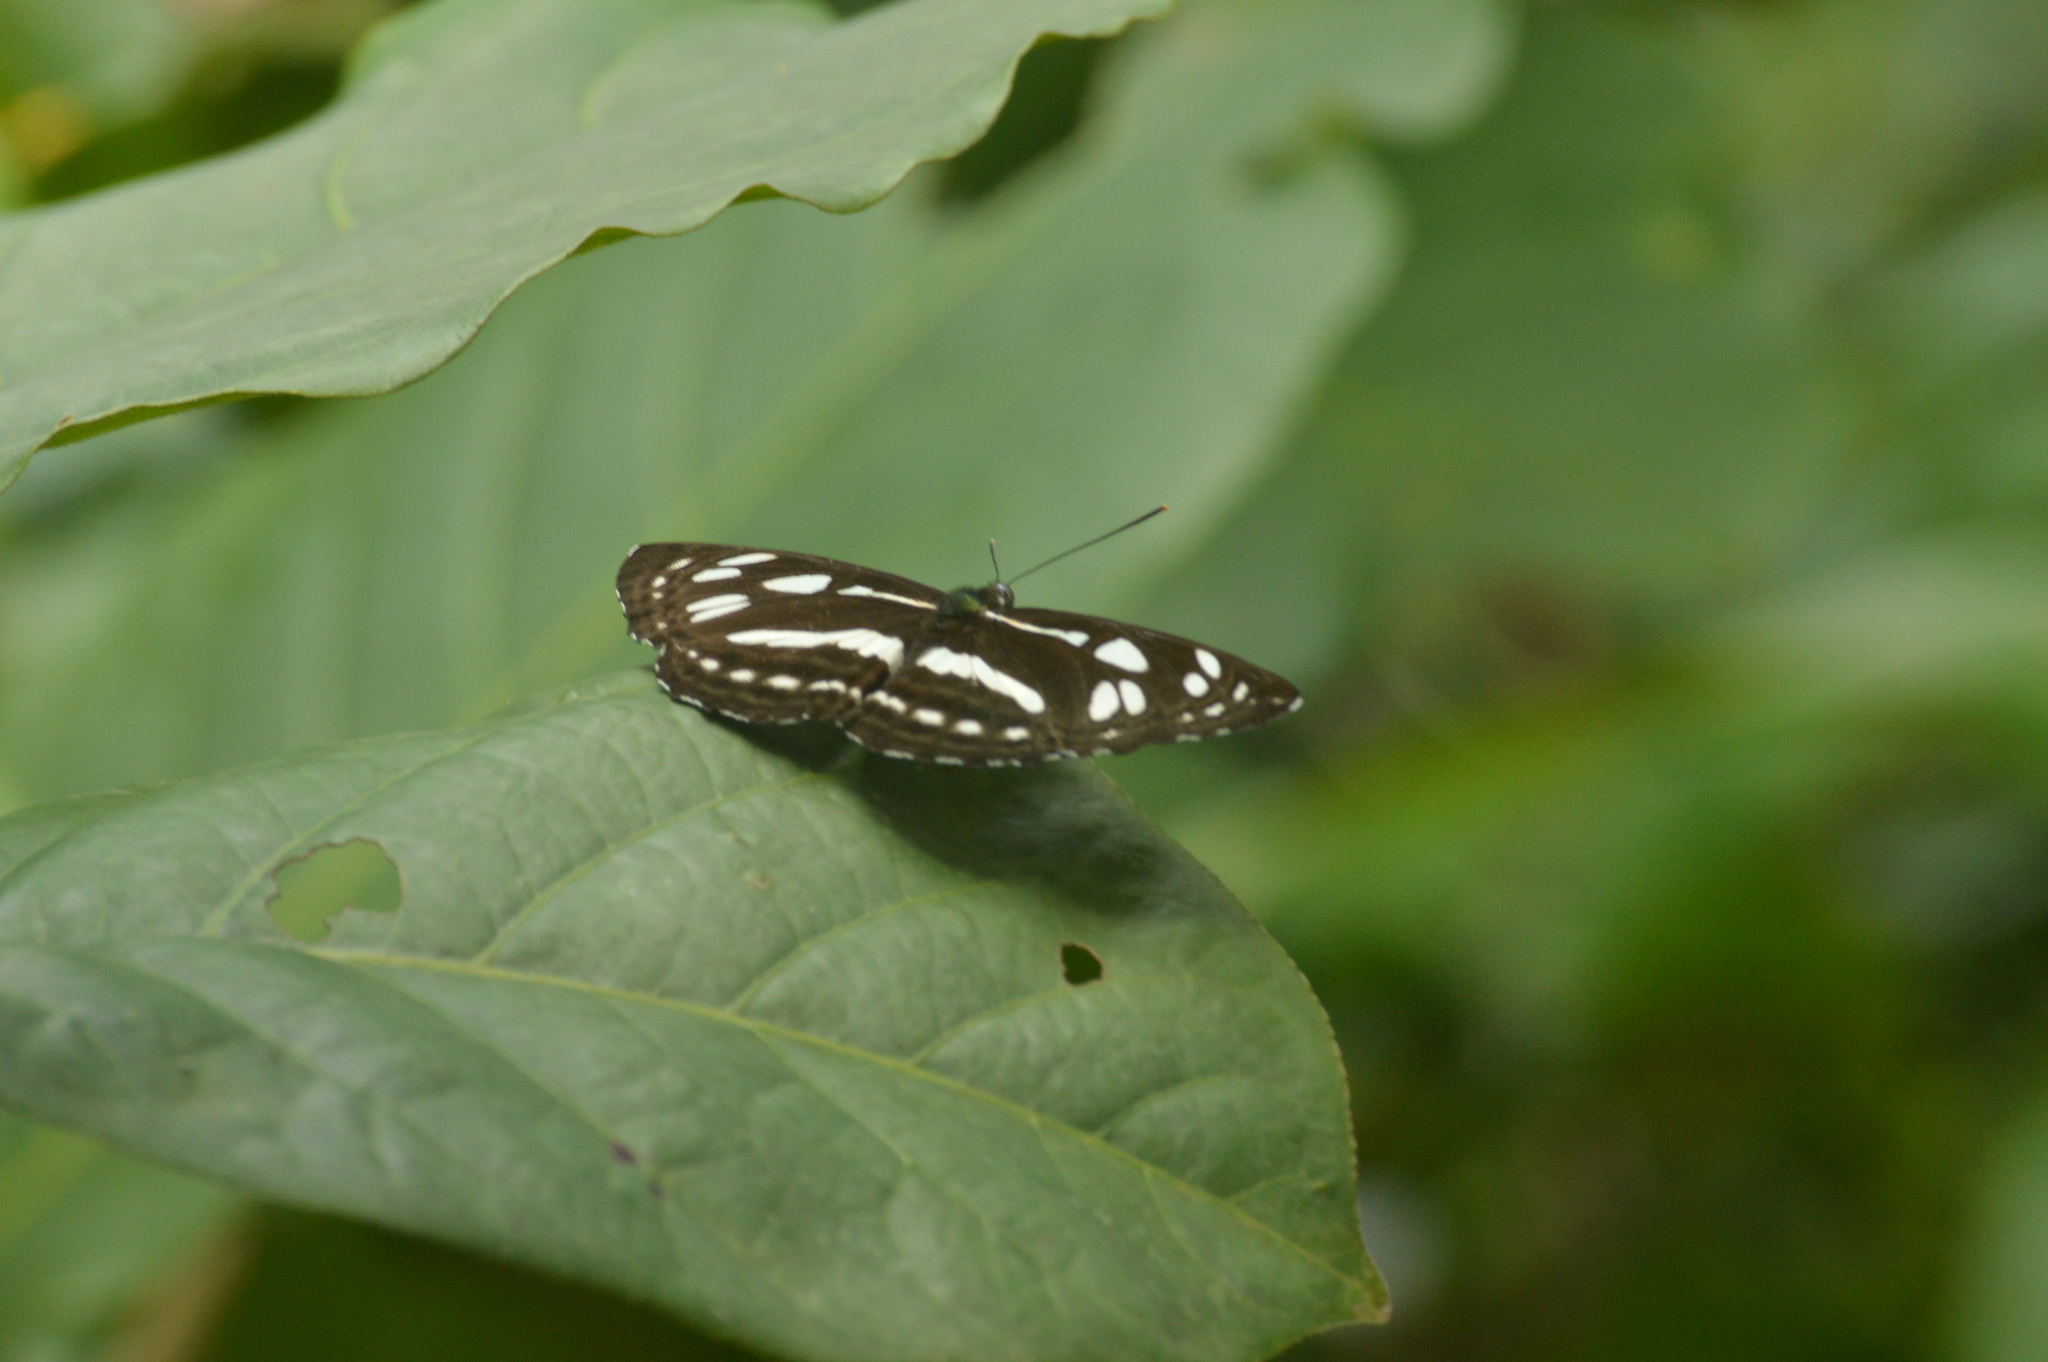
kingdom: Animalia
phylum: Arthropoda
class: Insecta
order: Lepidoptera
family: Nymphalidae
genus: Neptis
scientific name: Neptis hylas
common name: Common sailer
